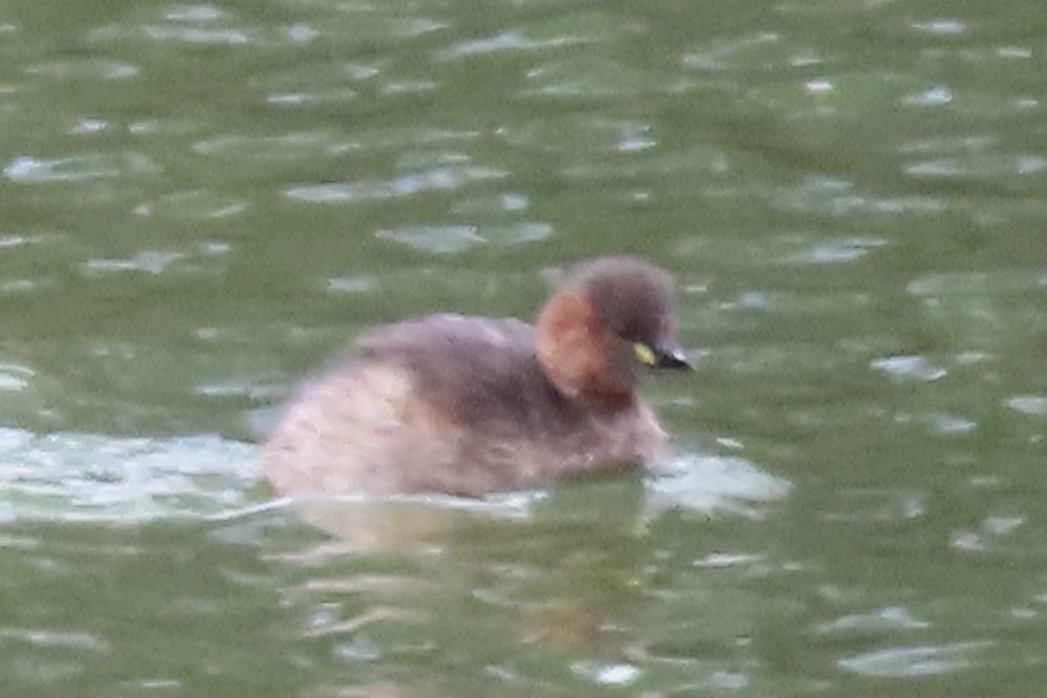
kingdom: Animalia
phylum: Chordata
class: Aves
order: Podicipediformes
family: Podicipedidae
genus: Tachybaptus
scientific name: Tachybaptus ruficollis
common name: Little grebe
